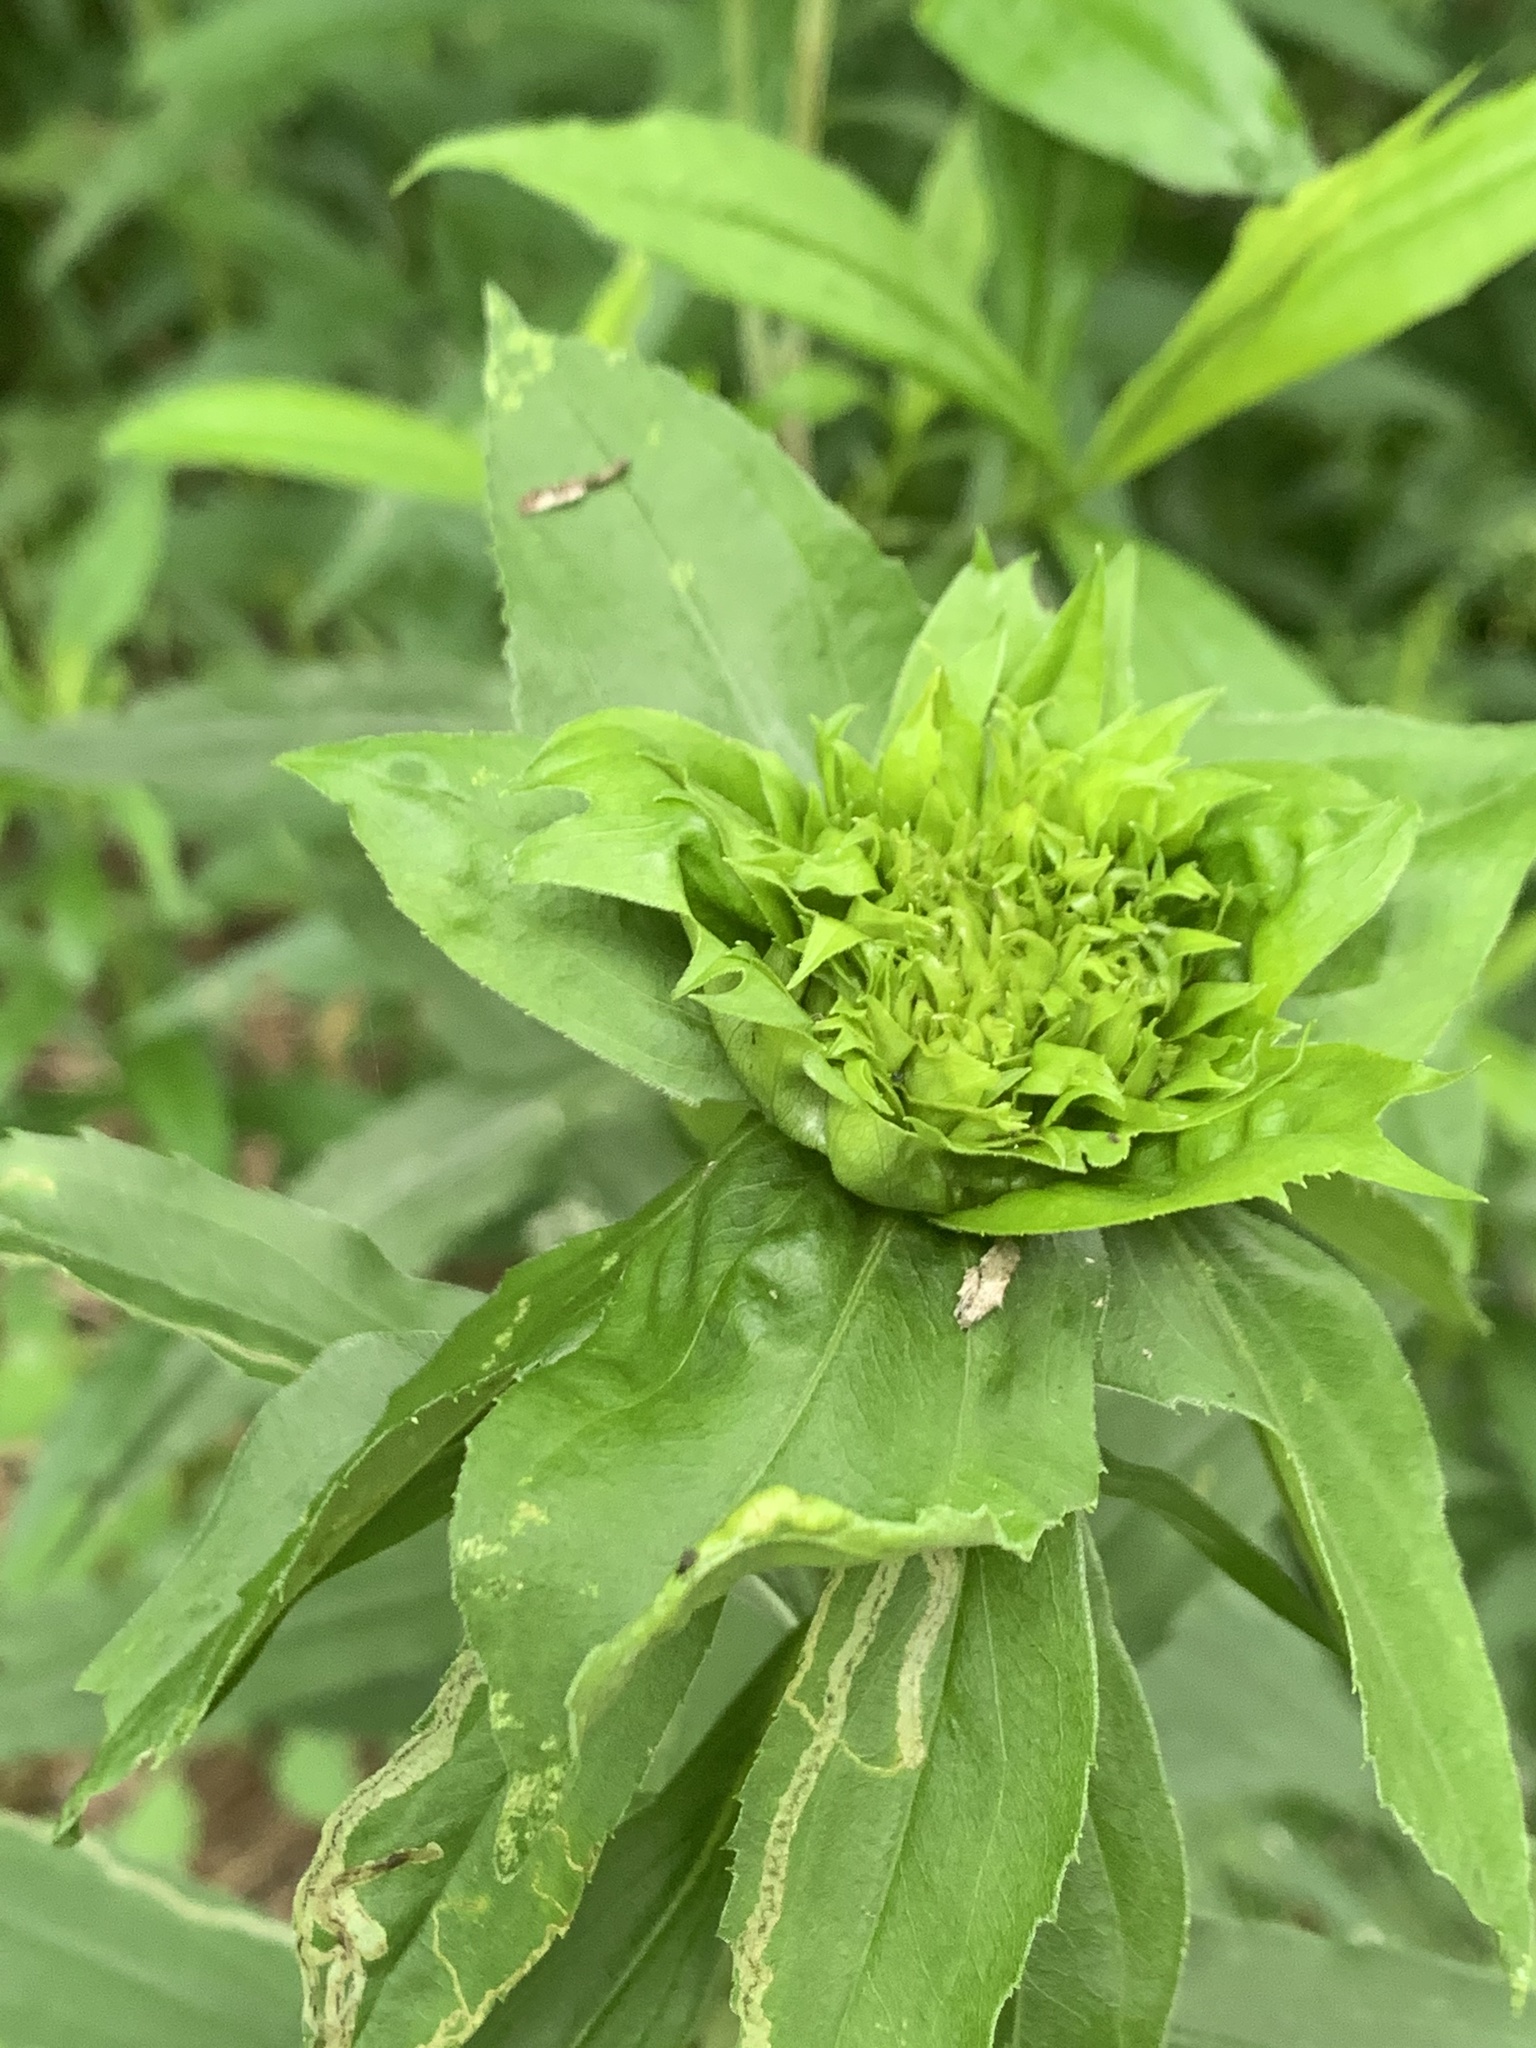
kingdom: Animalia
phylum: Arthropoda
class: Insecta
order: Diptera
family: Cecidomyiidae
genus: Rhopalomyia
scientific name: Rhopalomyia capitata
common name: Giant goldenrod bunch gall midge
